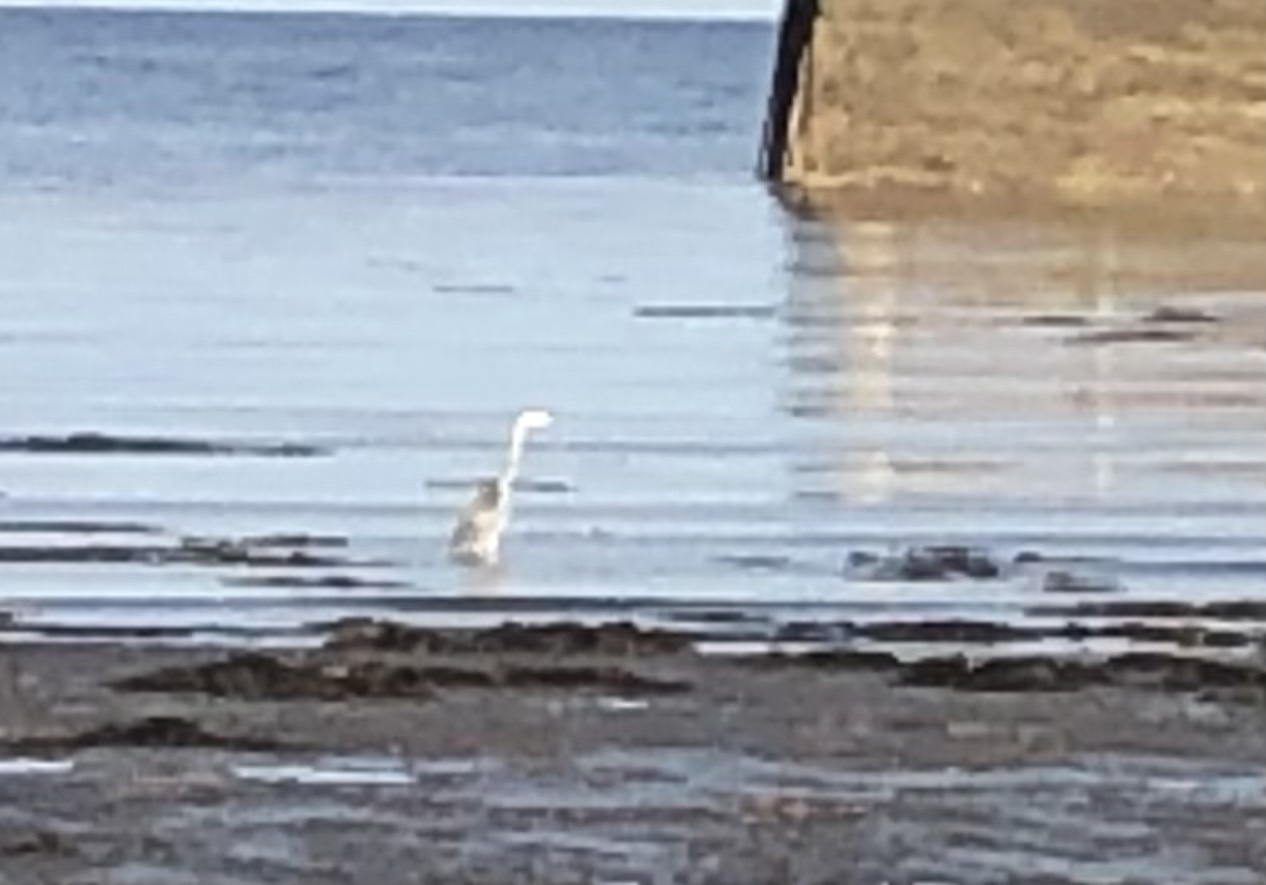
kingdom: Animalia
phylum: Chordata
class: Aves
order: Pelecaniformes
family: Ardeidae
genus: Ardea
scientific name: Ardea cinerea
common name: Grey heron
